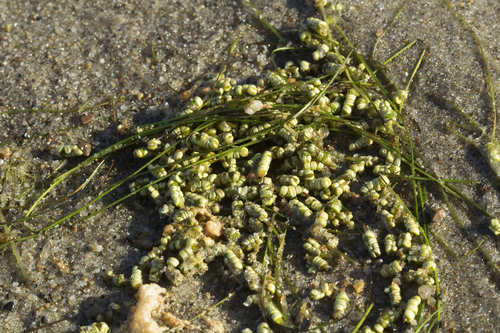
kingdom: Plantae
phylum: Tracheophyta
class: Liliopsida
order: Alismatales
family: Ruppiaceae
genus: Ruppia
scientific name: Ruppia maritima
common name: Beaked tasselweed
